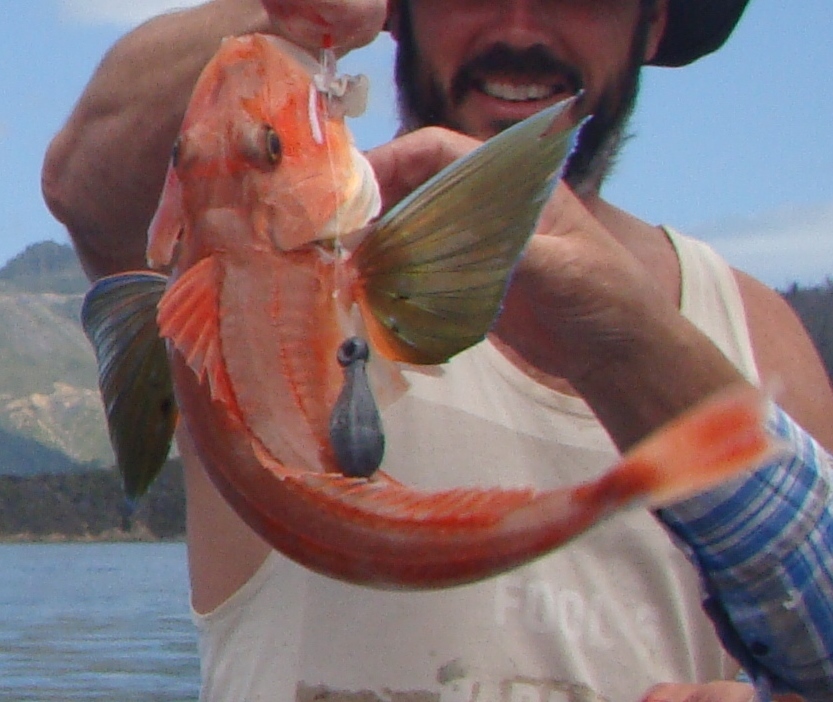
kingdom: Animalia
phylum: Chordata
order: Scorpaeniformes
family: Triglidae
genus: Chelidonichthys
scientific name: Chelidonichthys kumu
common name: Bluefin gurnard
